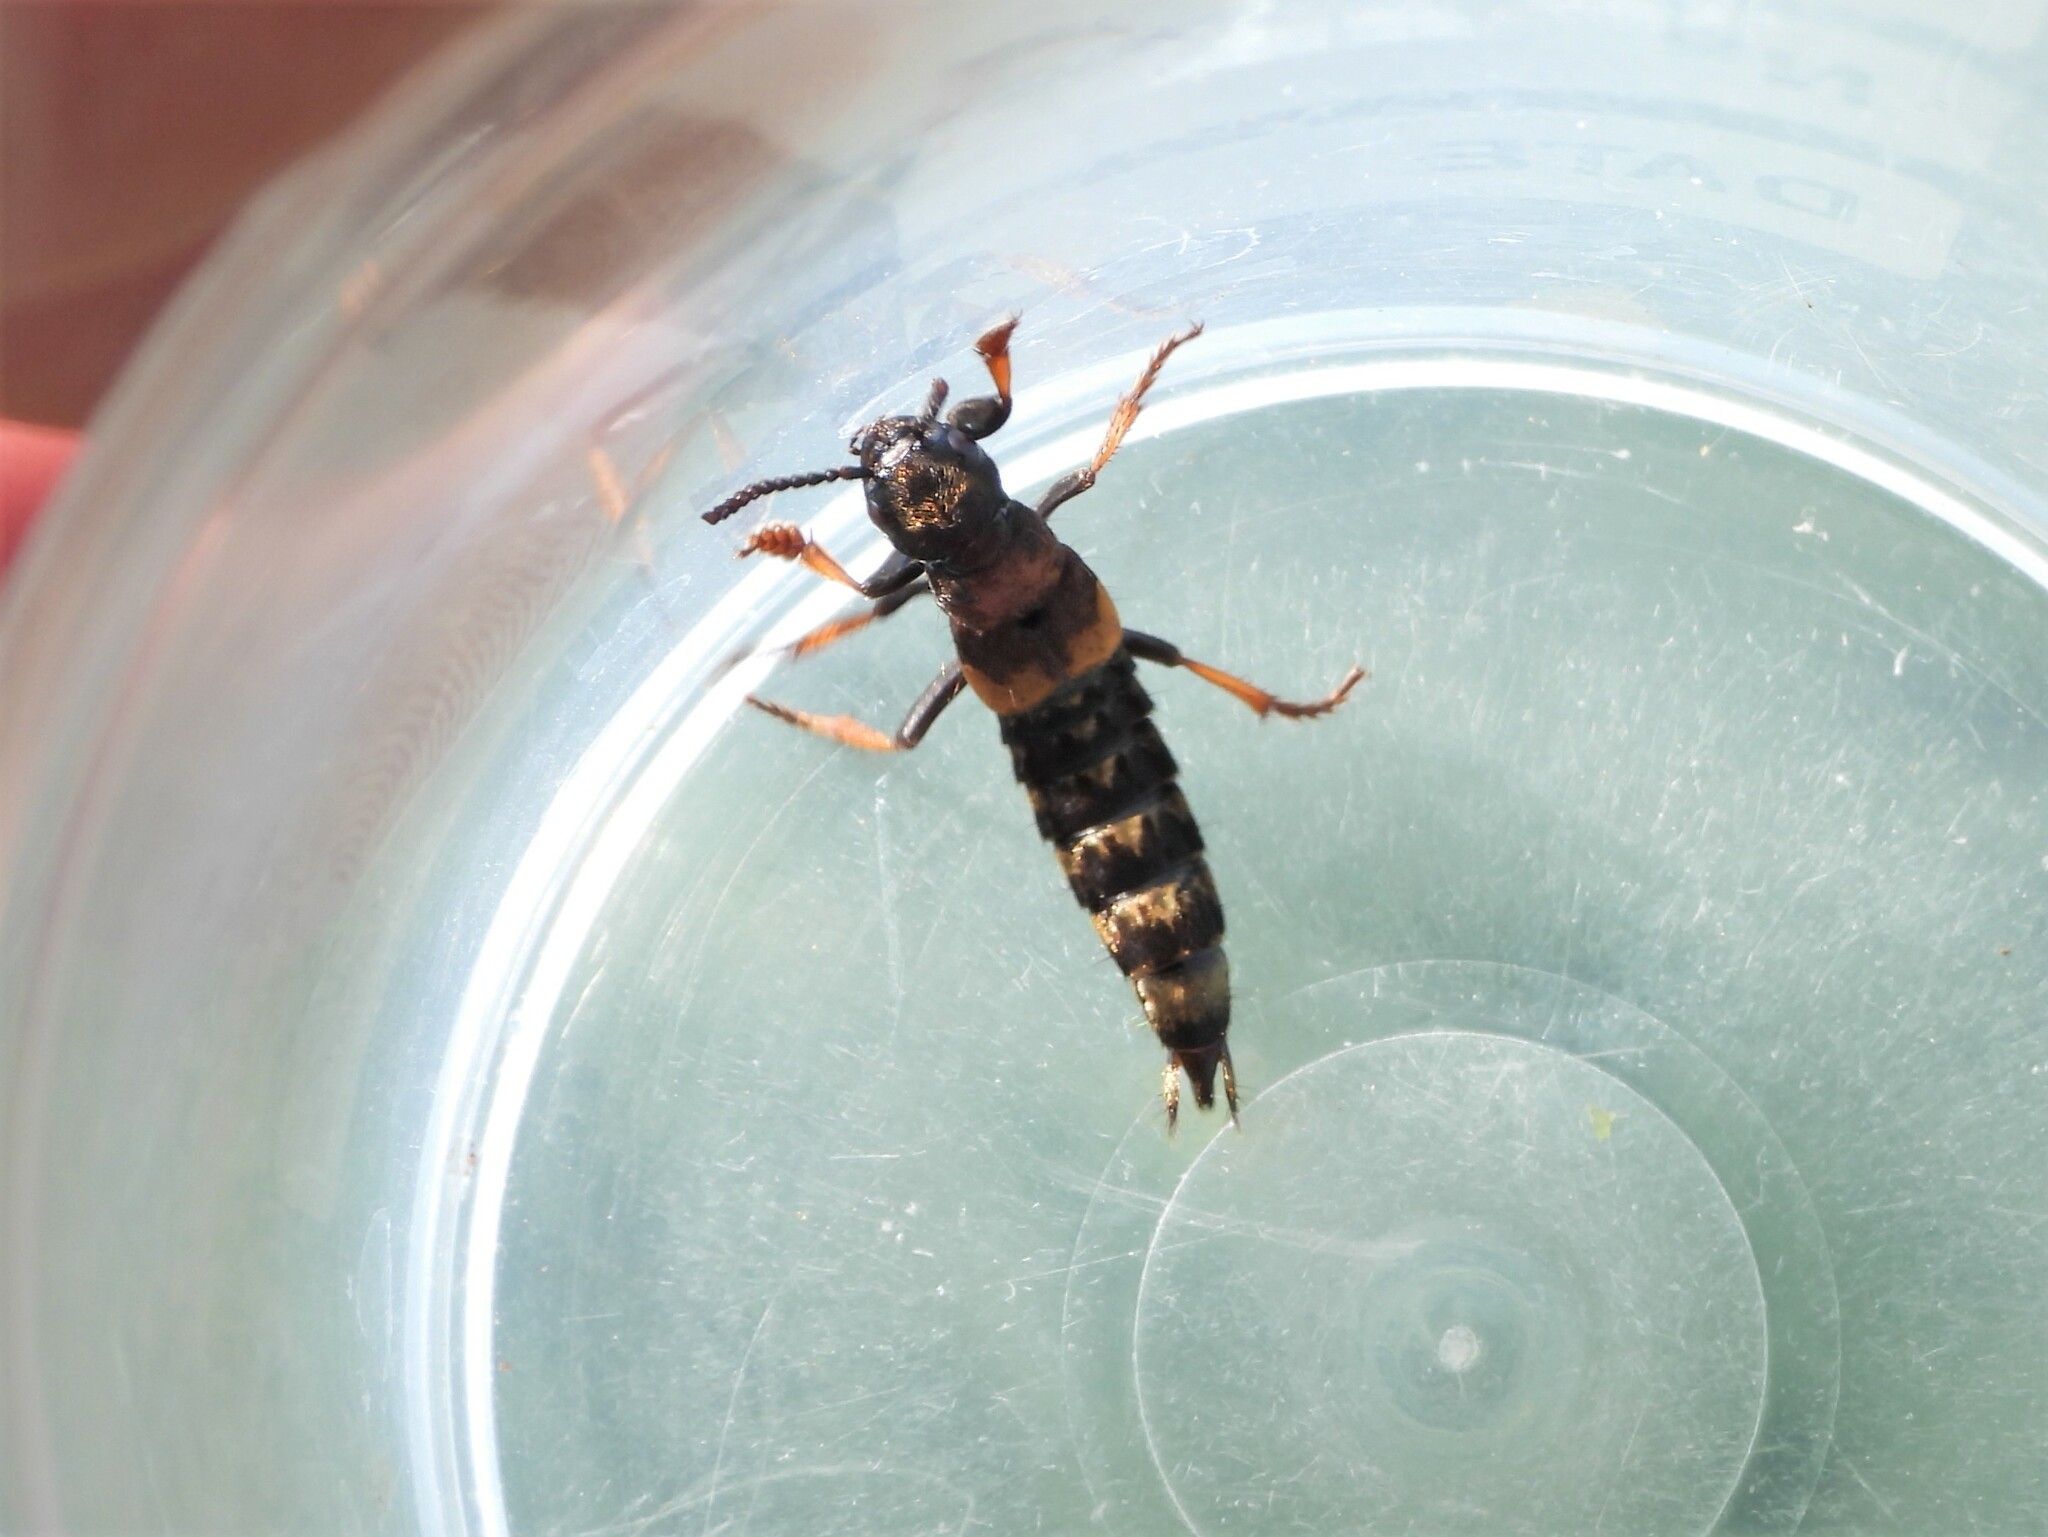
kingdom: Animalia
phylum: Arthropoda
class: Insecta
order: Coleoptera
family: Staphylinidae
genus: Dinothenarus
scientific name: Dinothenarus fossor
